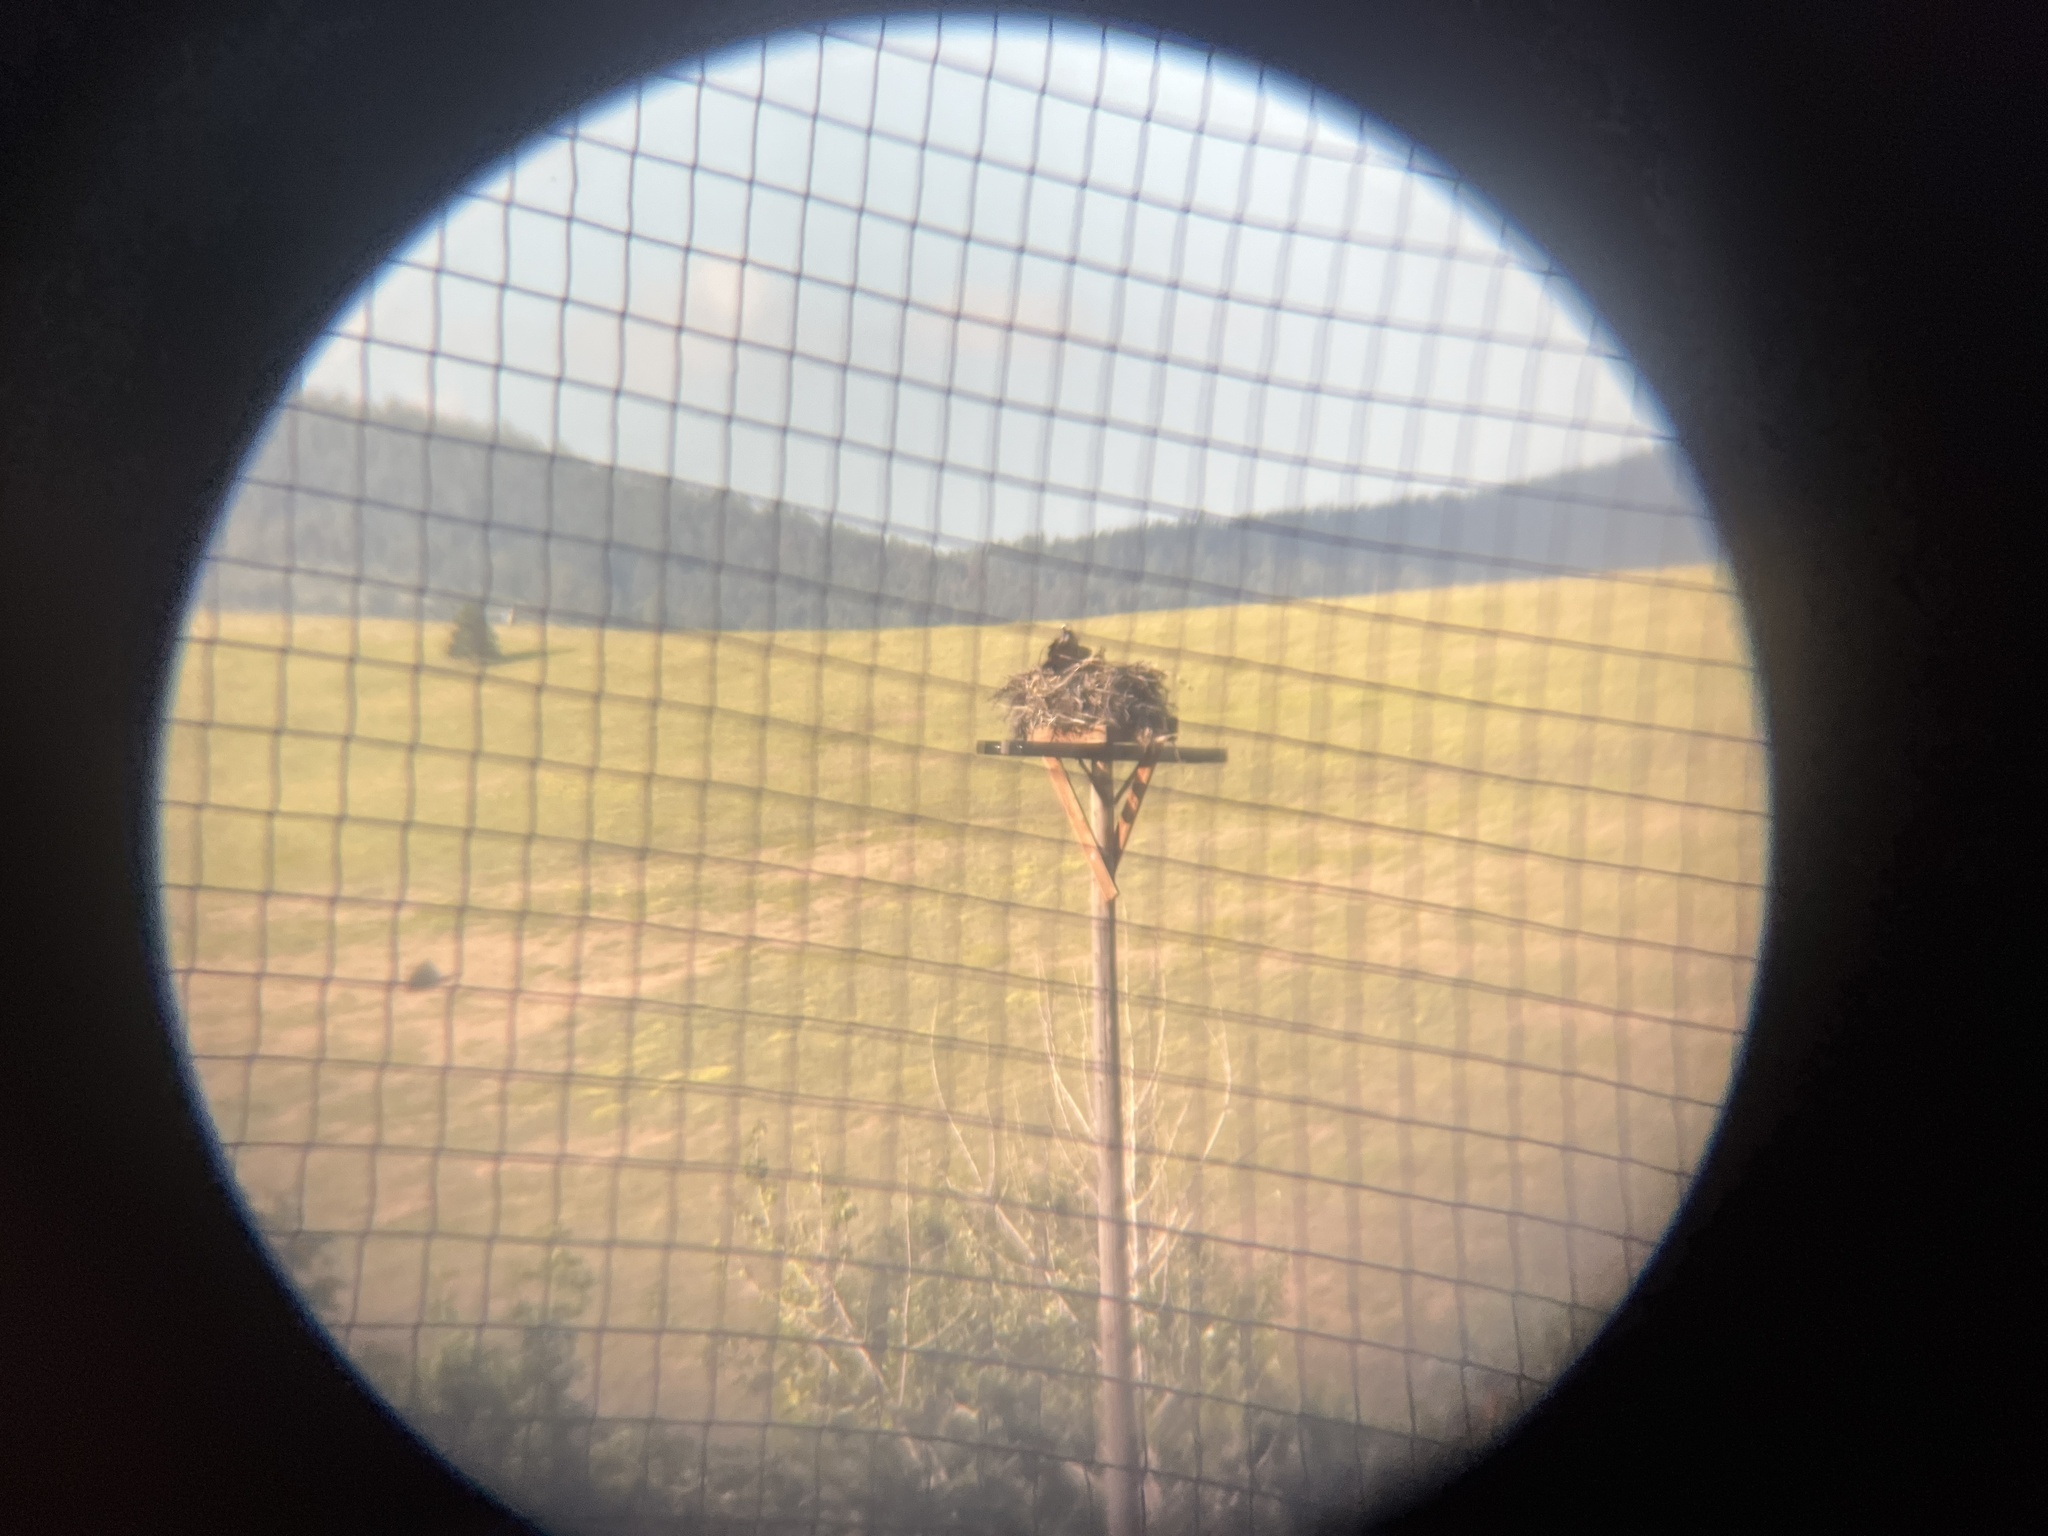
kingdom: Animalia
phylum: Chordata
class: Aves
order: Accipitriformes
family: Pandionidae
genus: Pandion
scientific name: Pandion haliaetus
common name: Osprey
